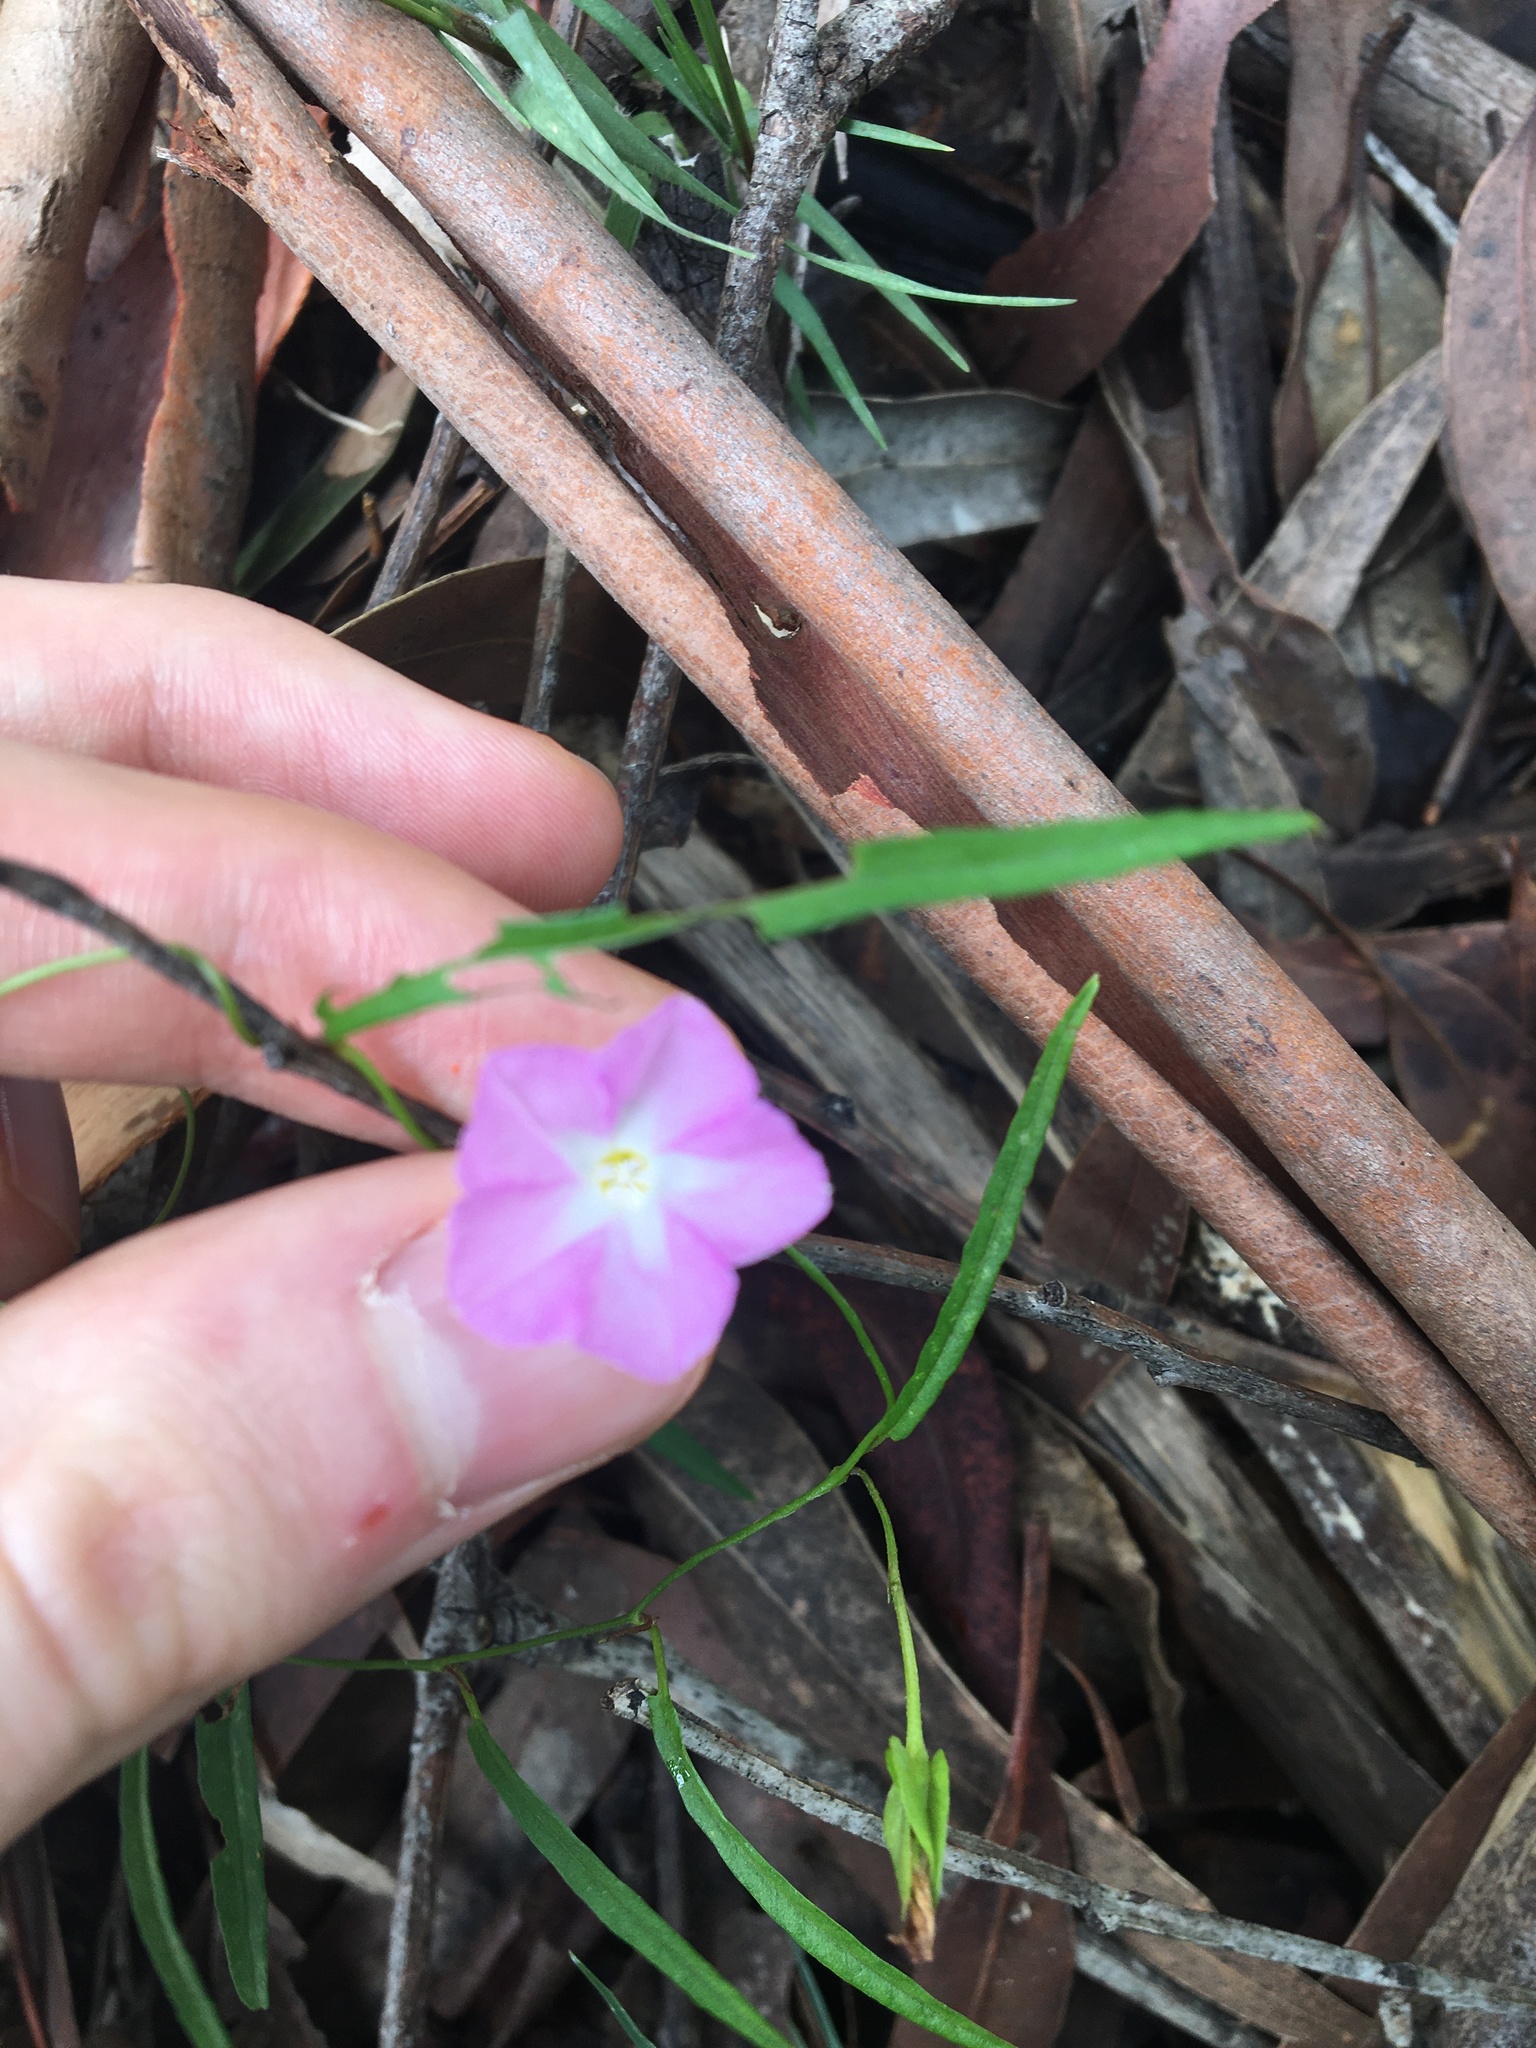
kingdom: Plantae
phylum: Tracheophyta
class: Magnoliopsida
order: Solanales
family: Convolvulaceae
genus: Polymeria
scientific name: Polymeria calycina
